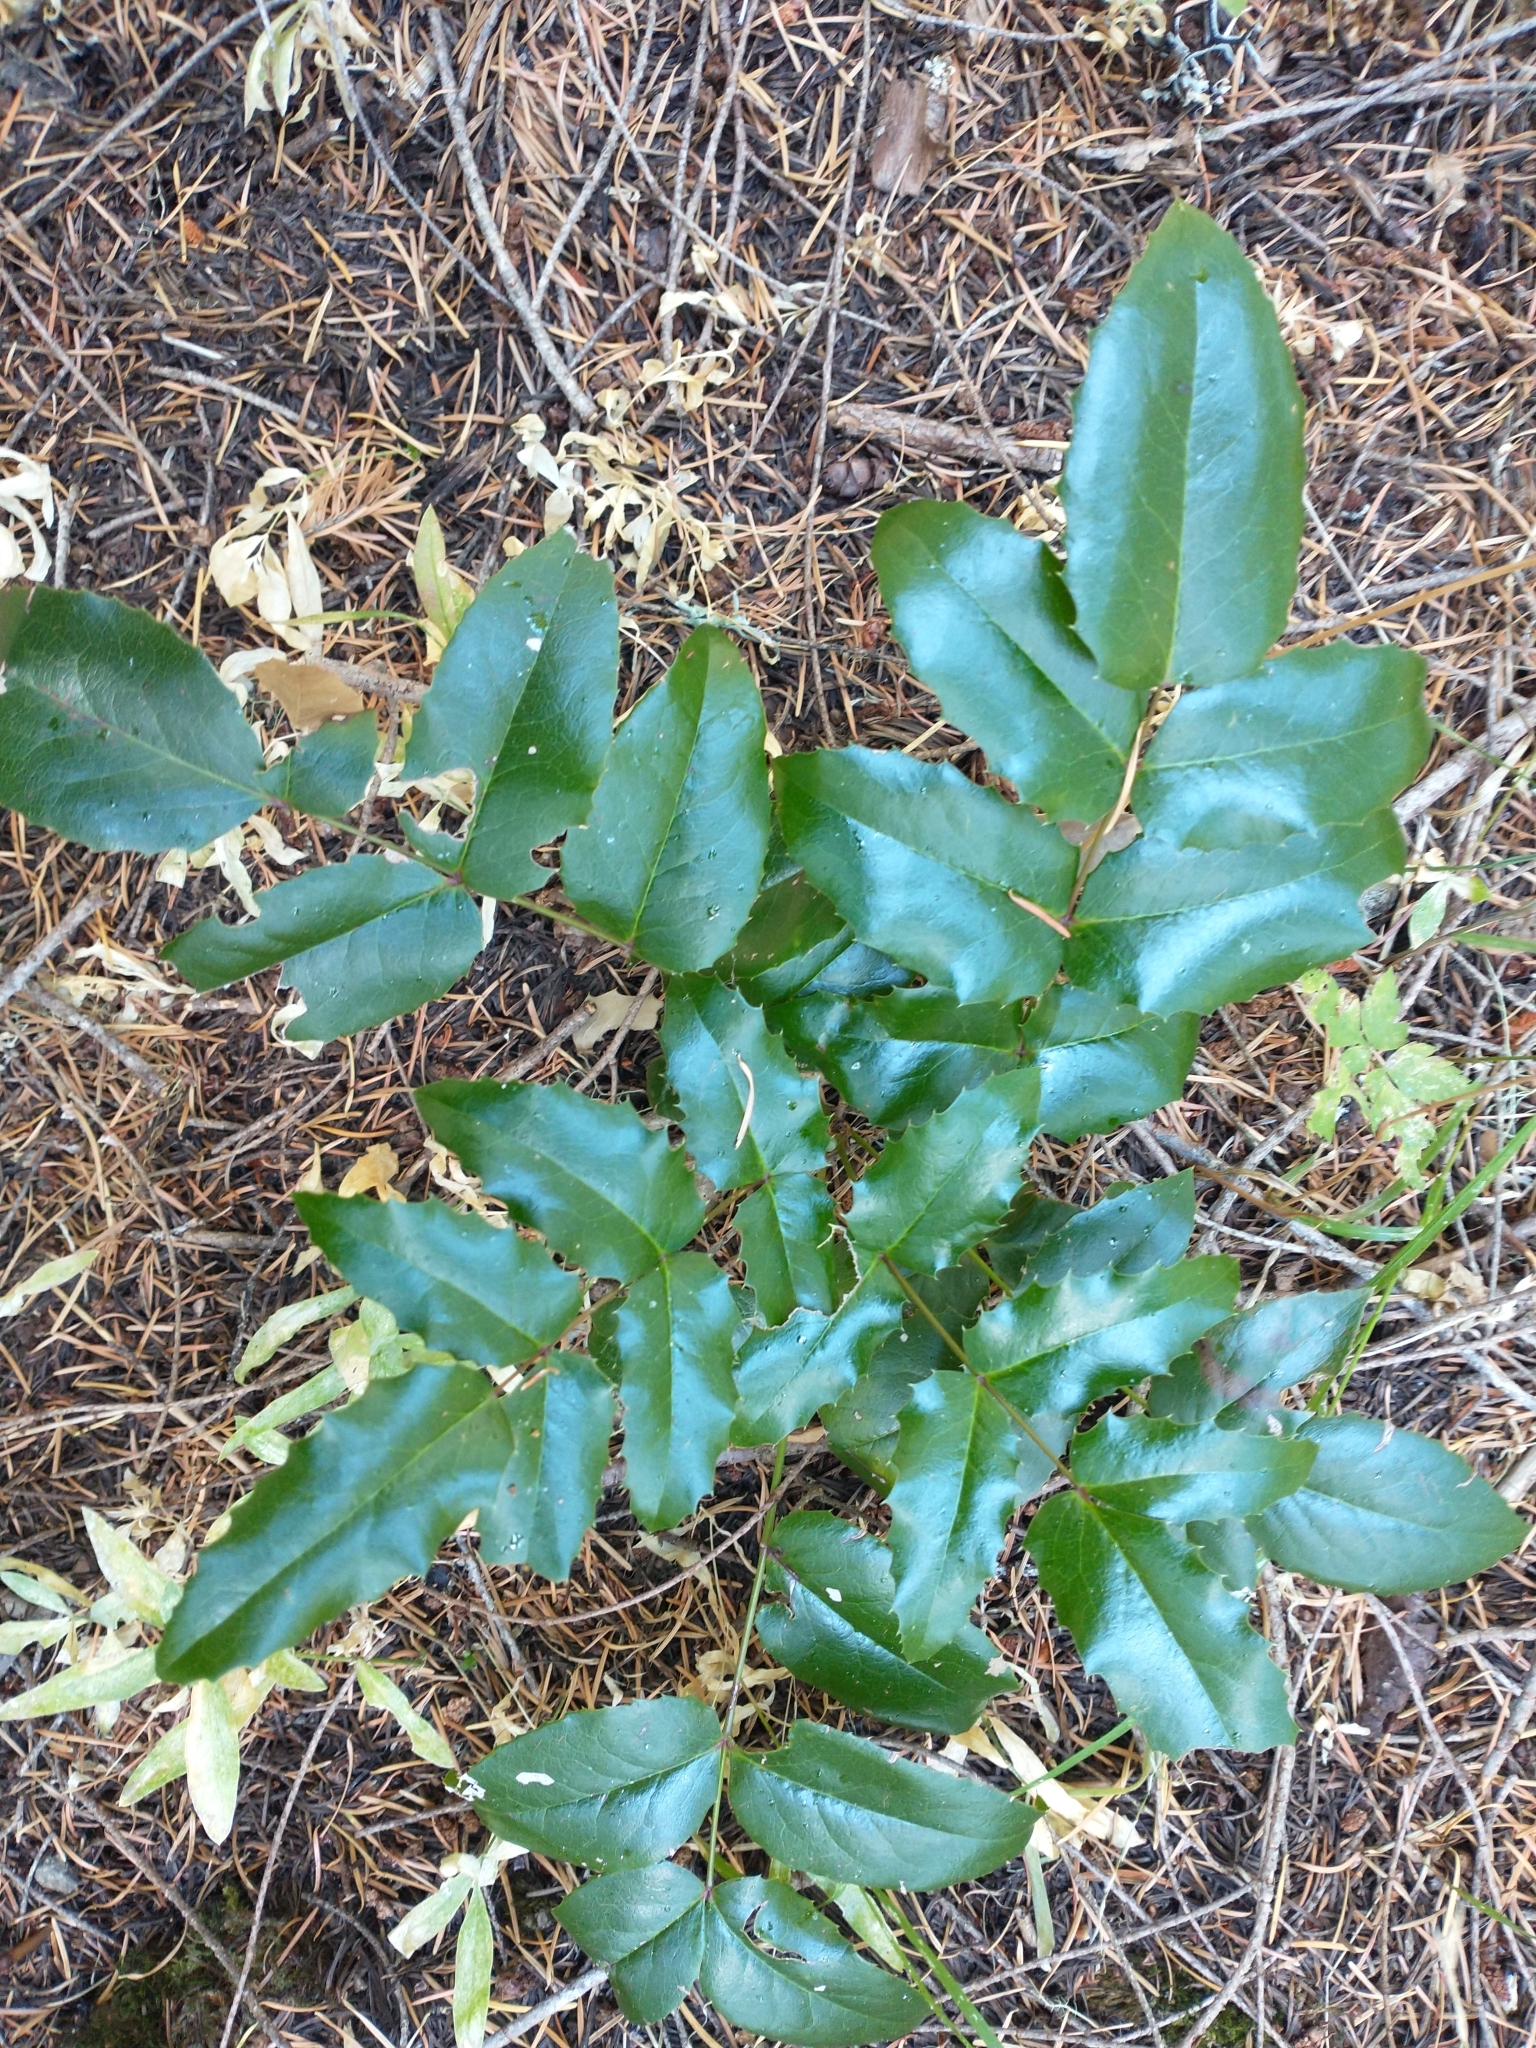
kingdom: Plantae
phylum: Tracheophyta
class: Magnoliopsida
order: Ranunculales
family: Berberidaceae
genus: Mahonia
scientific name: Mahonia aquifolium
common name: Oregon-grape
